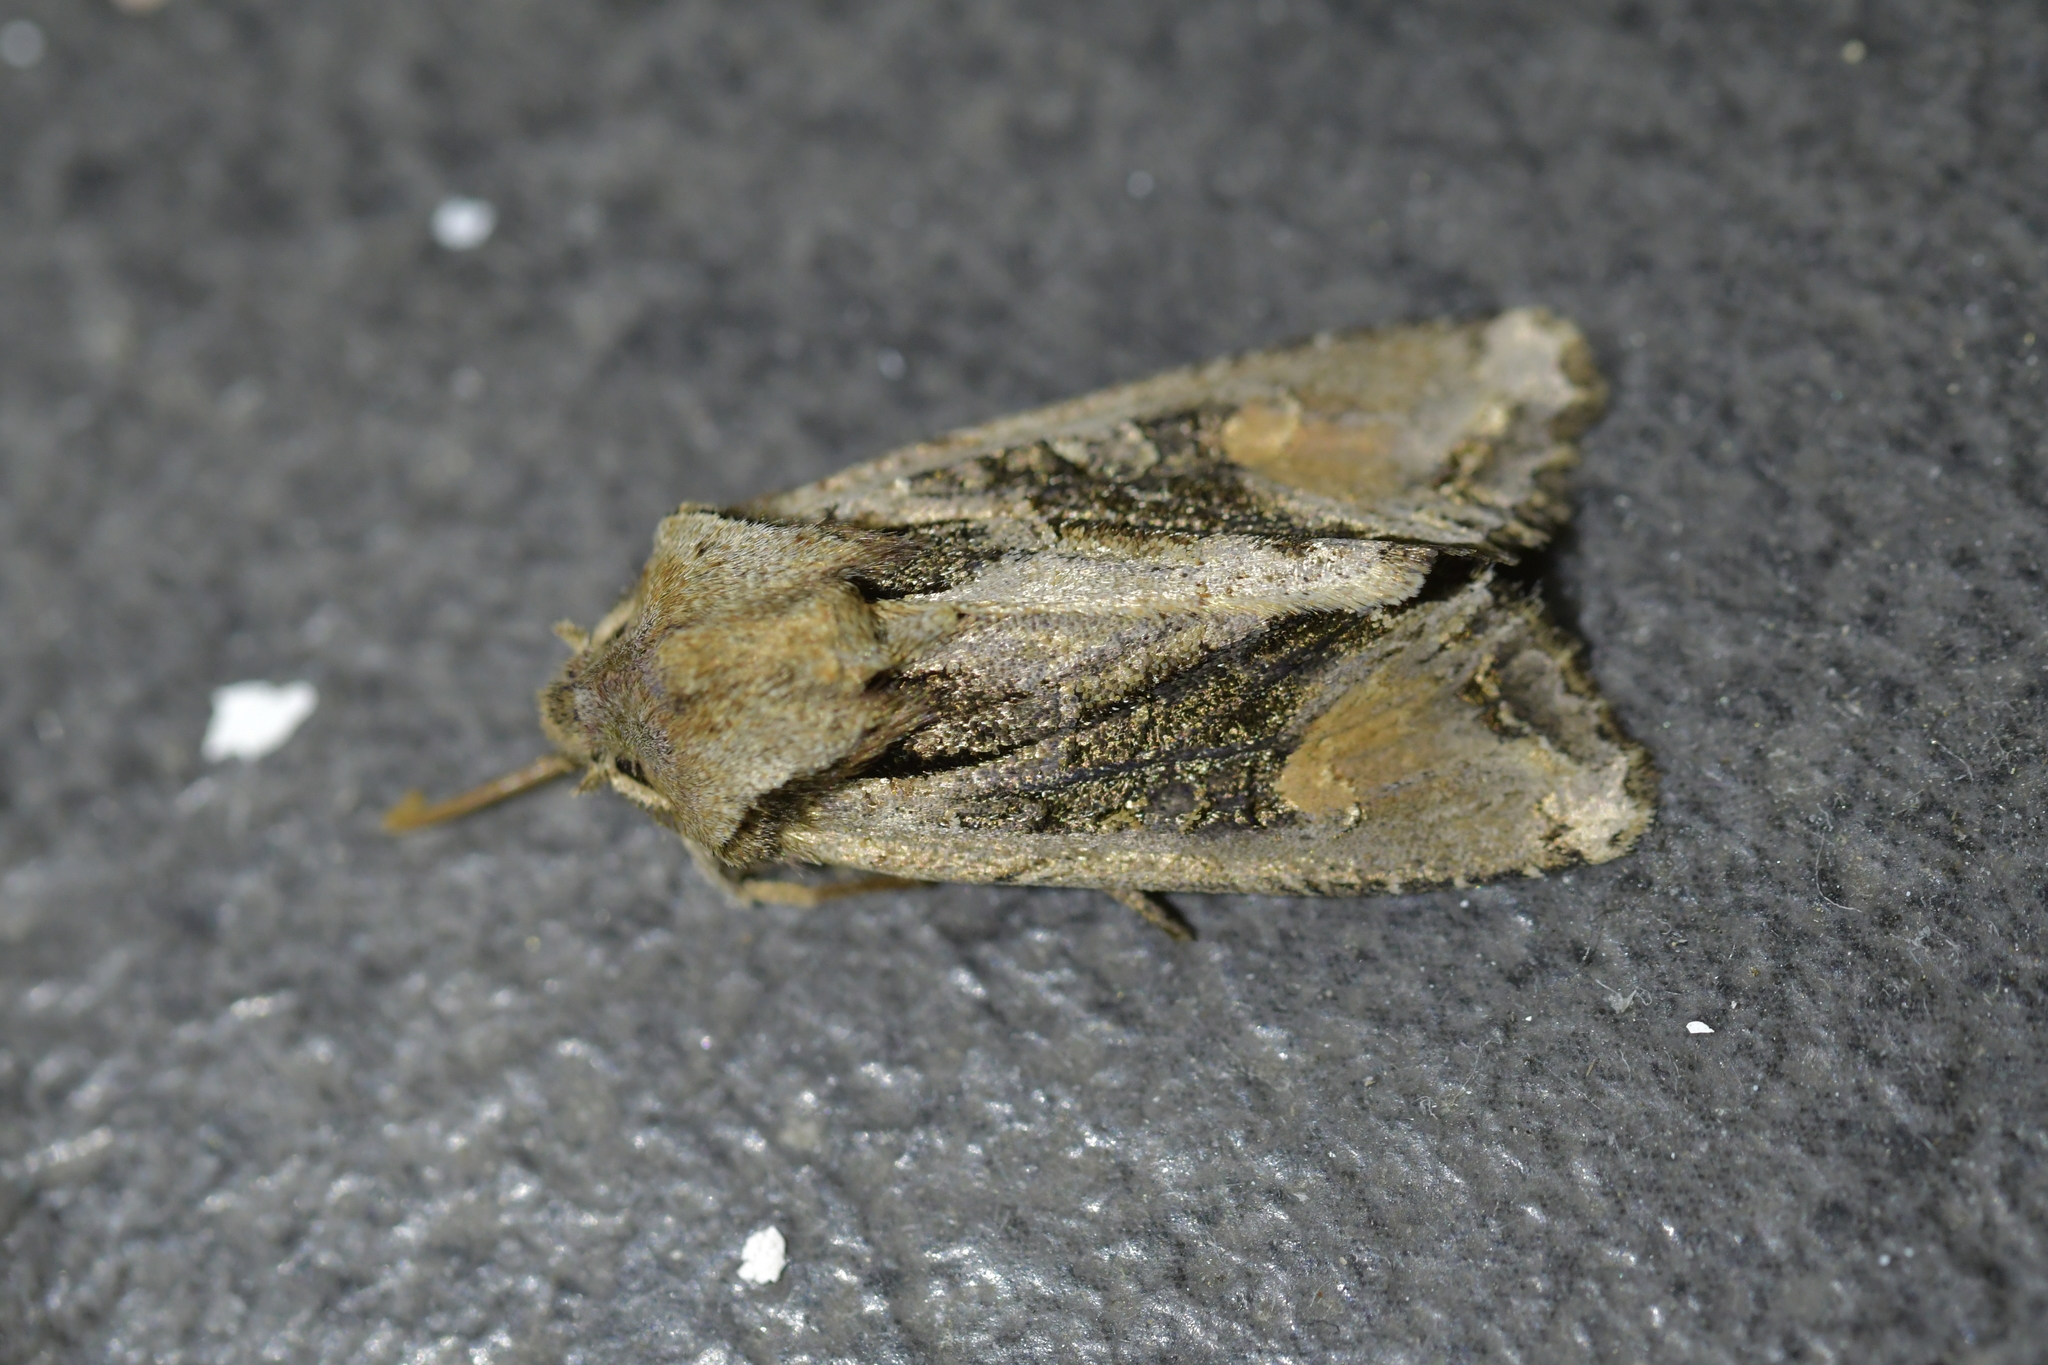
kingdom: Animalia
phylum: Arthropoda
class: Insecta
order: Lepidoptera
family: Noctuidae
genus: Ichneutica
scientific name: Ichneutica
